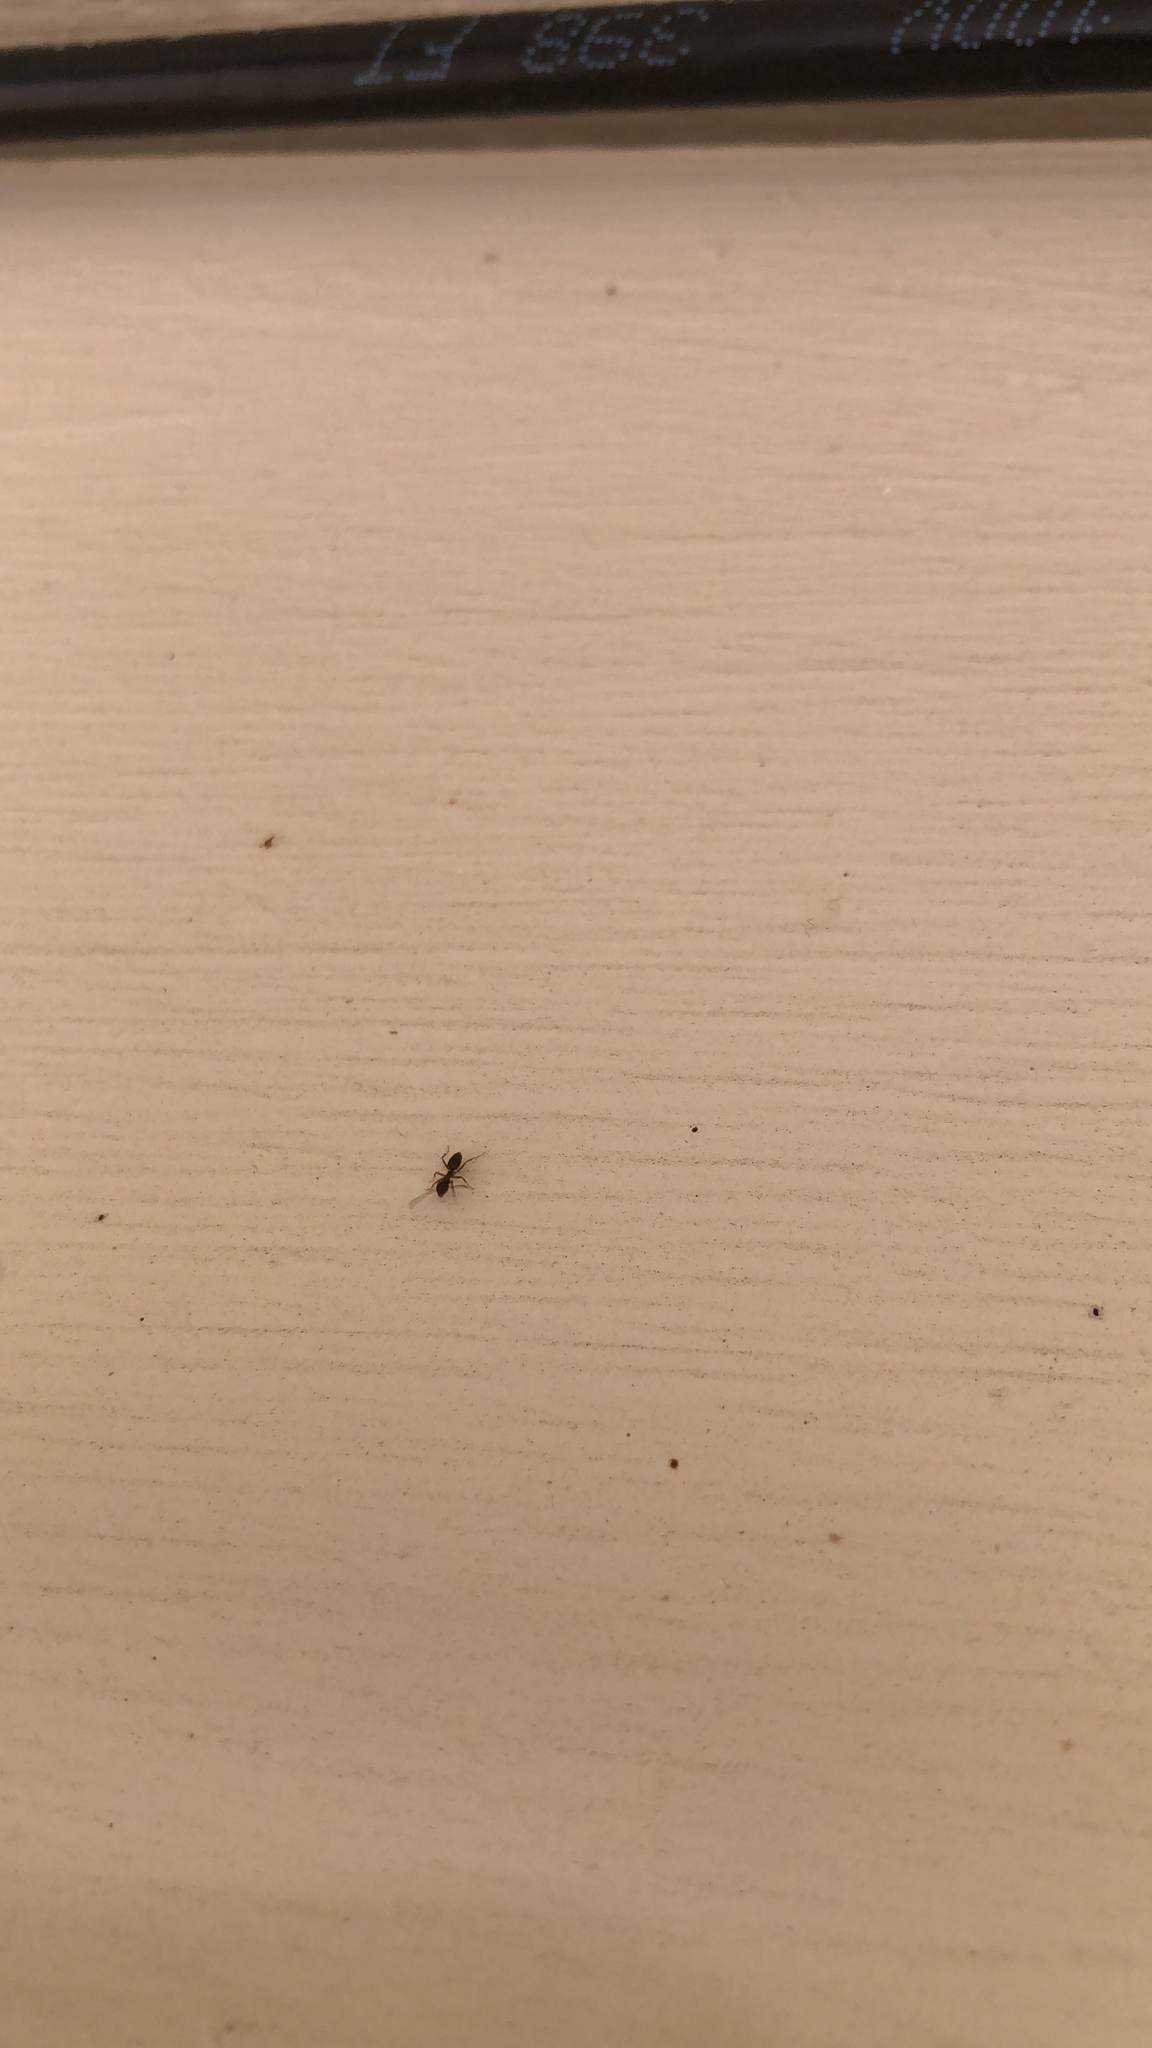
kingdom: Animalia
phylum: Arthropoda
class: Insecta
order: Hymenoptera
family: Formicidae
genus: Tapinoma
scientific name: Tapinoma sessile
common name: Odorous house ant
